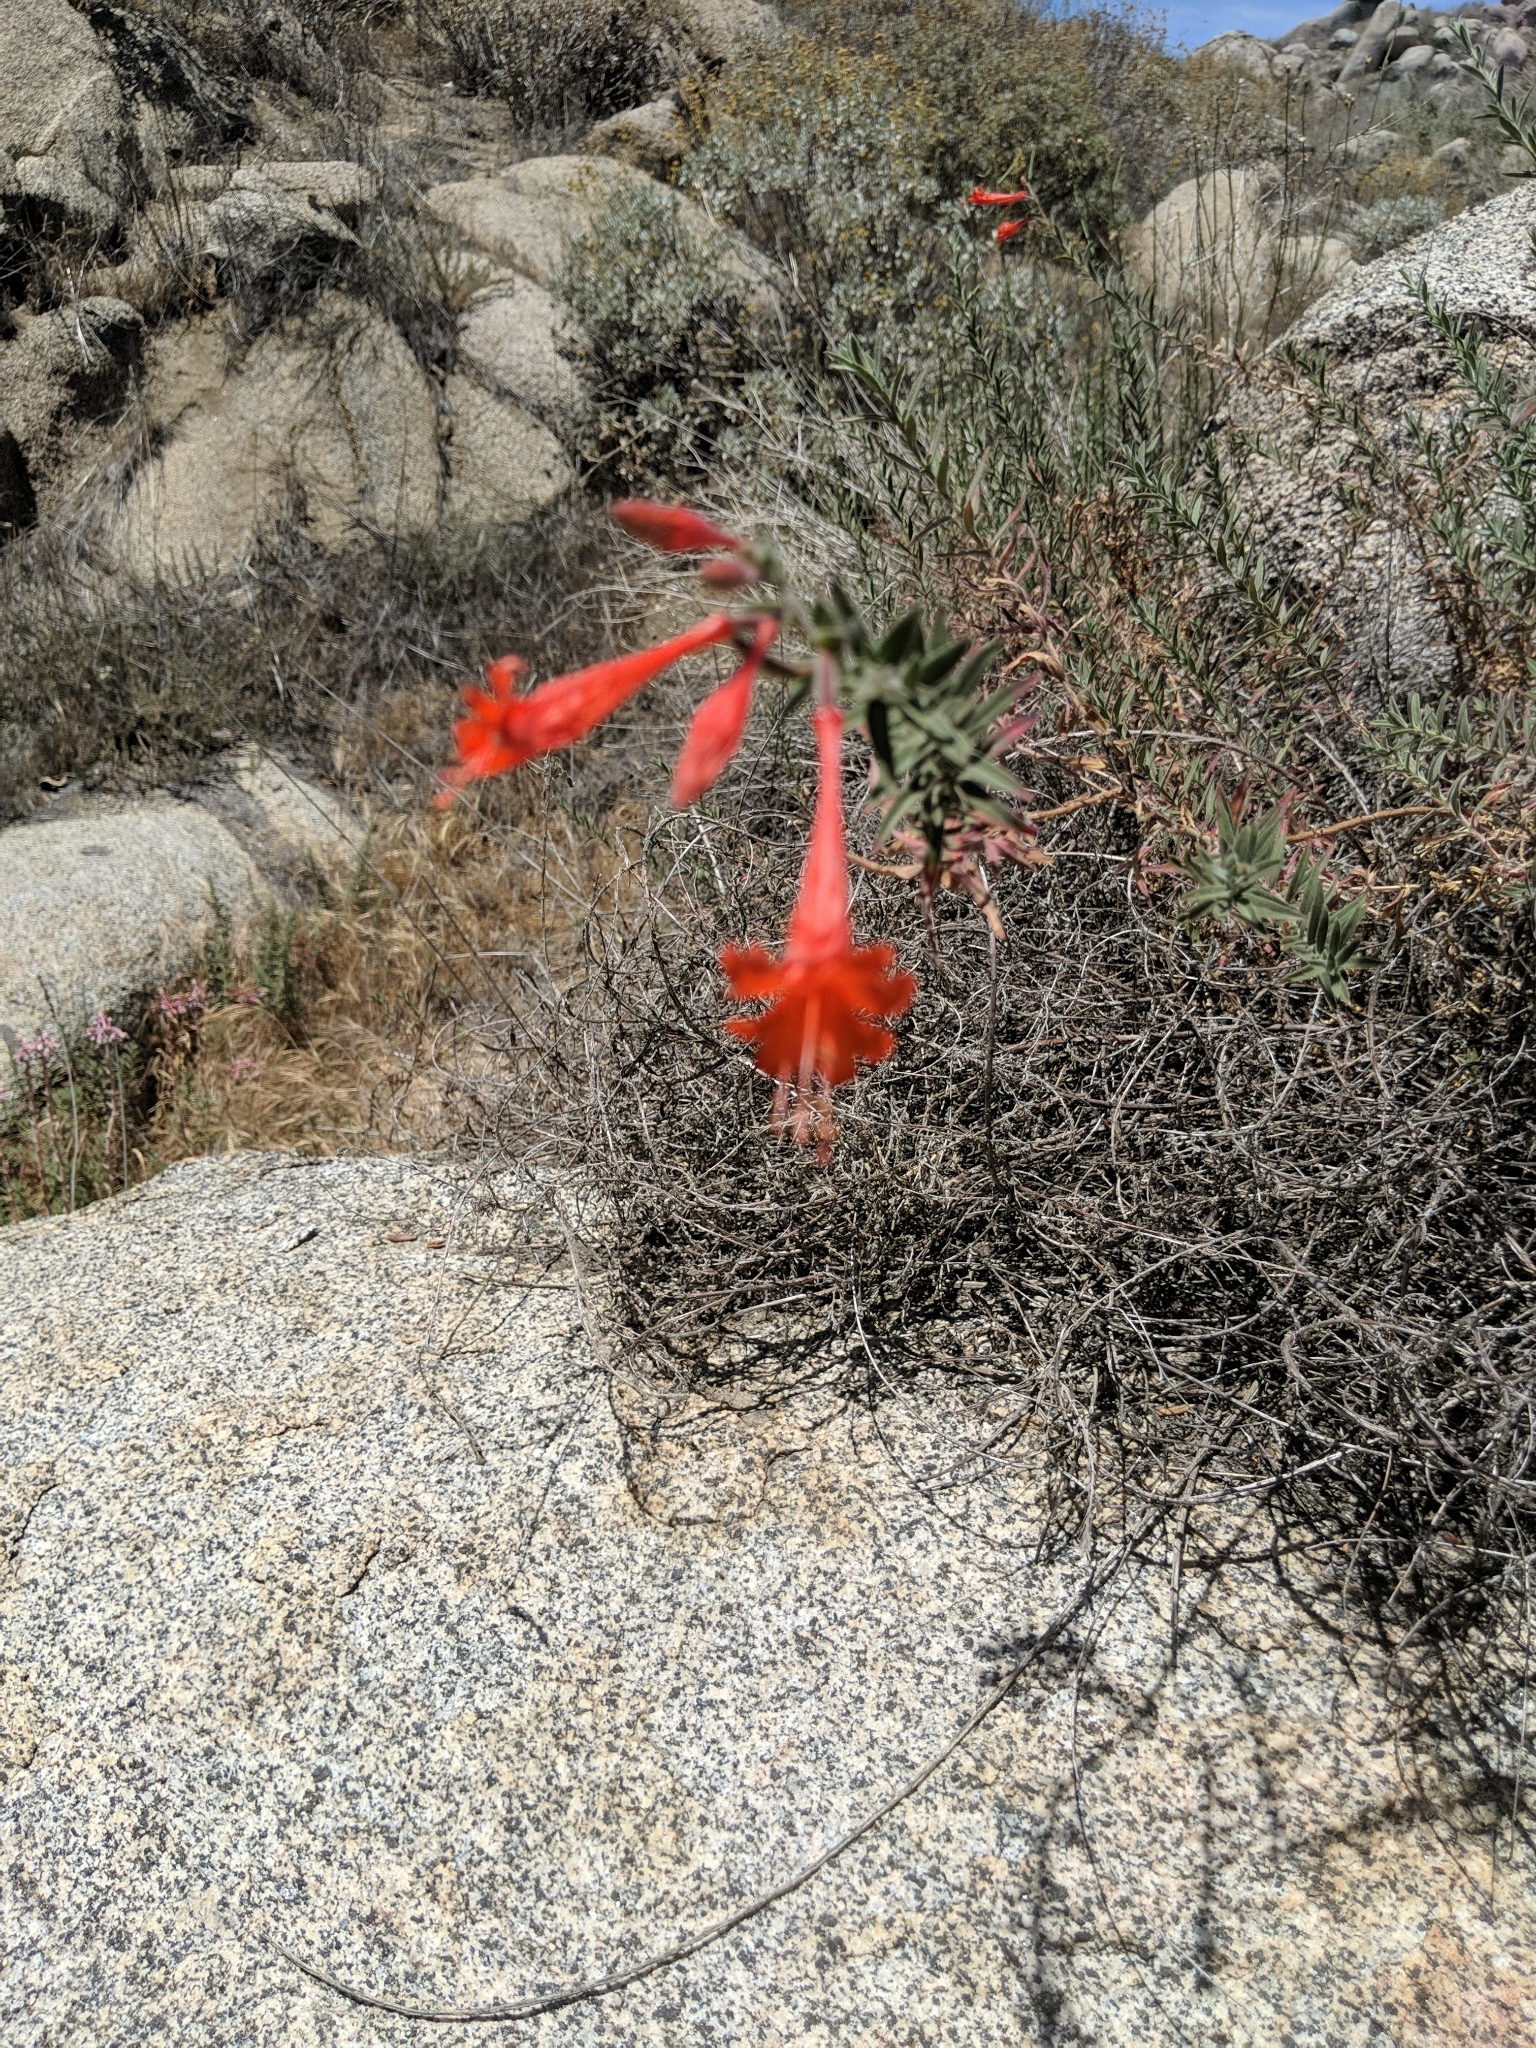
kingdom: Plantae
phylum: Tracheophyta
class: Magnoliopsida
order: Myrtales
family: Onagraceae
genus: Epilobium
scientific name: Epilobium canum
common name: California-fuchsia
